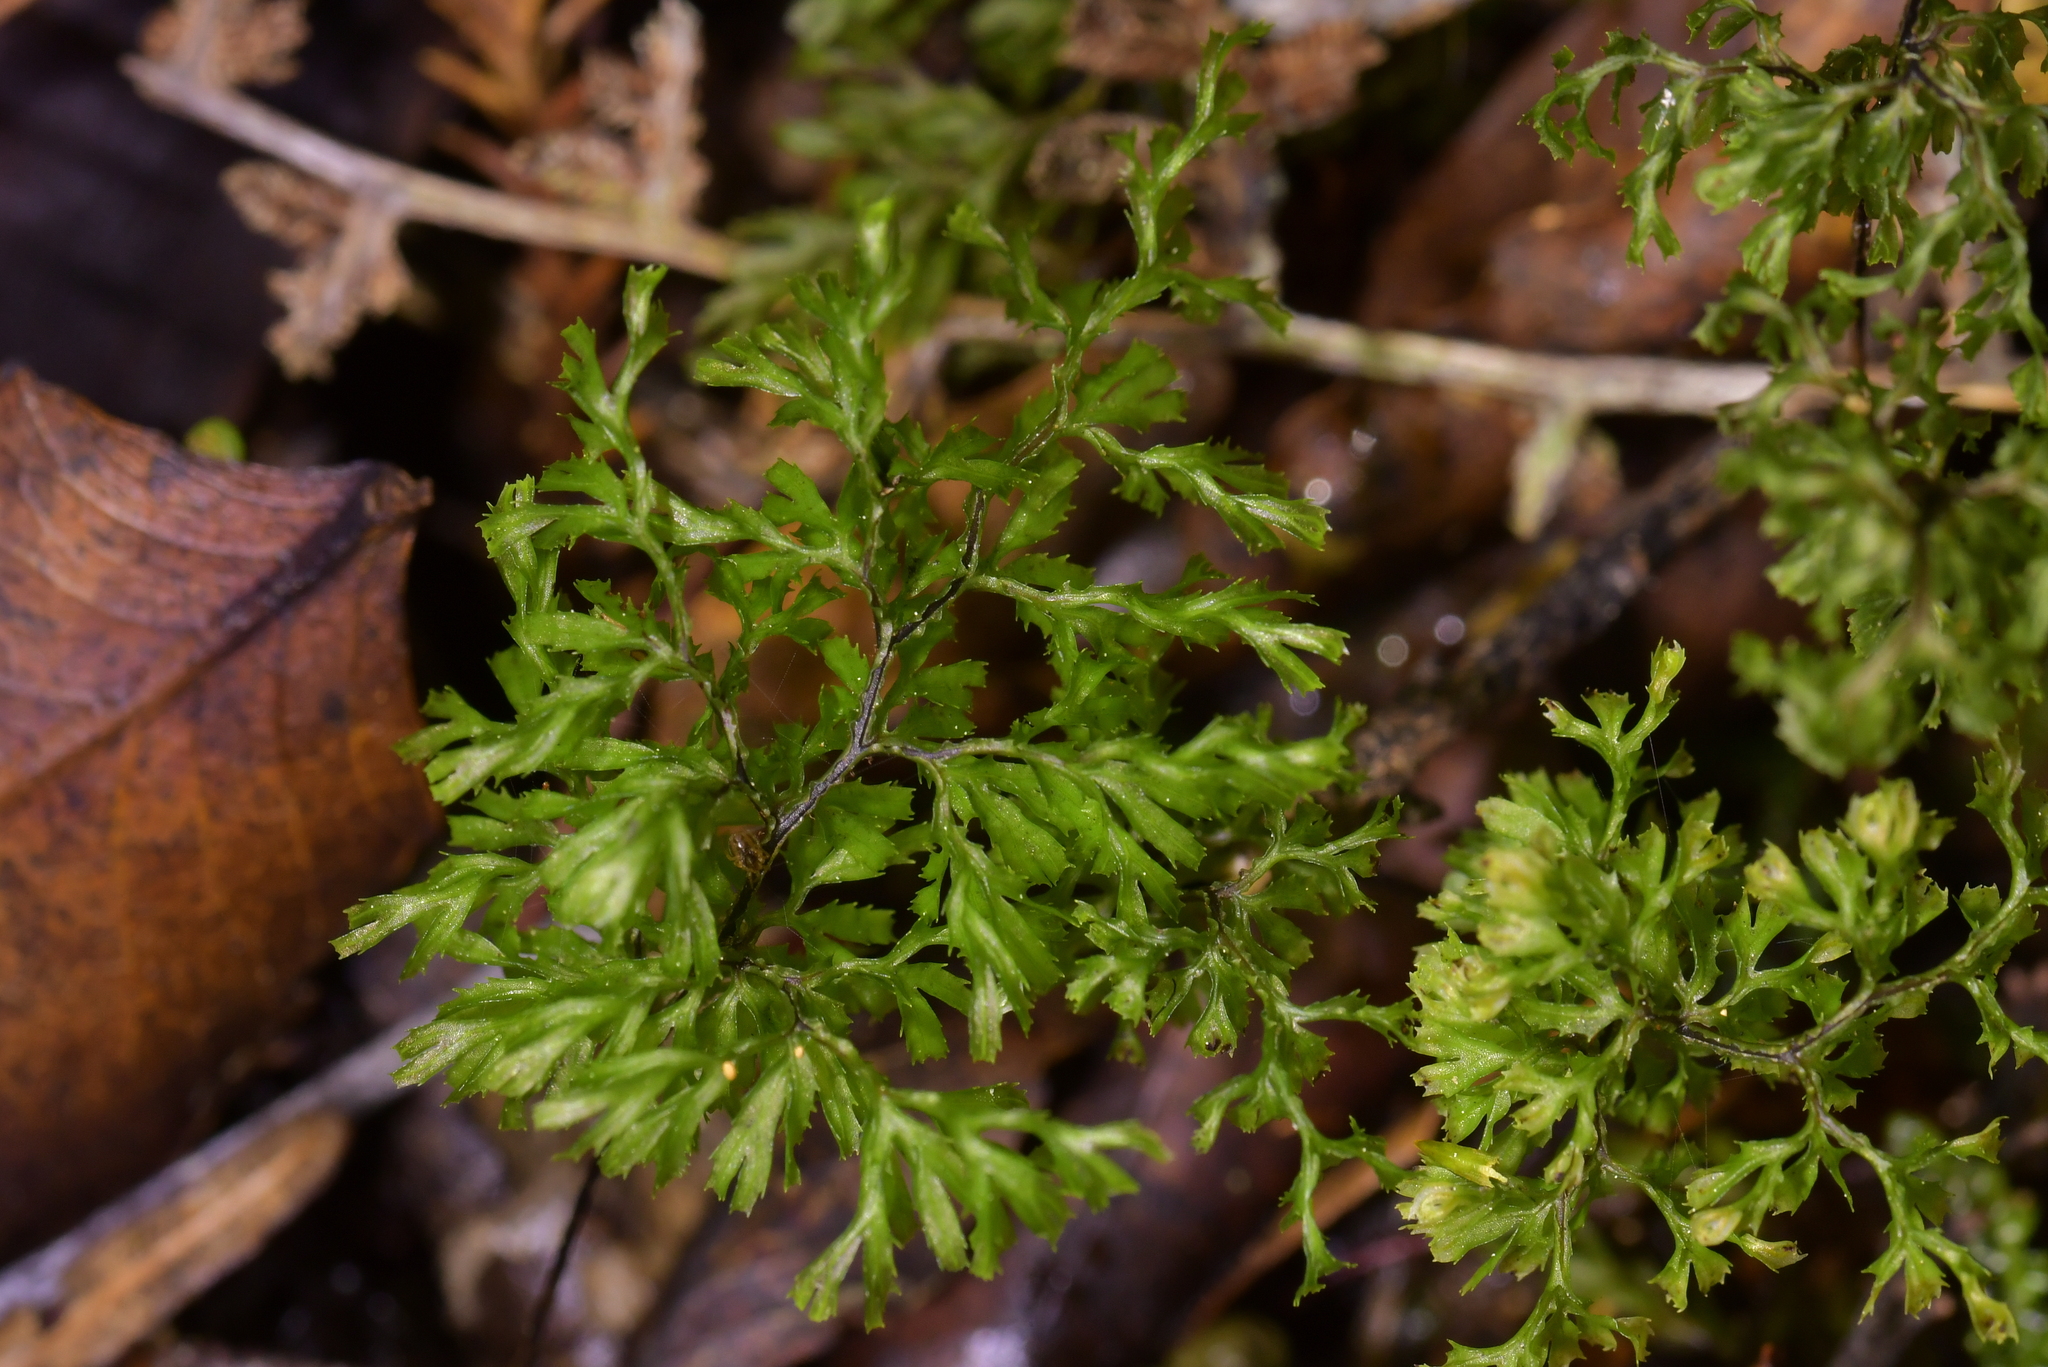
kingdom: Plantae
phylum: Tracheophyta
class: Polypodiopsida
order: Hymenophyllales
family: Hymenophyllaceae
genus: Hymenophyllum
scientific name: Hymenophyllum multifidum
